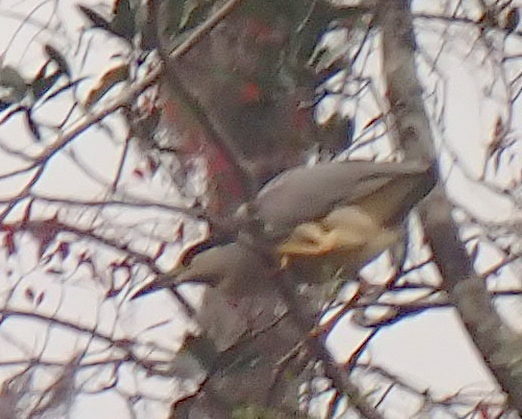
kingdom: Animalia
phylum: Chordata
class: Aves
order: Pelecaniformes
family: Ardeidae
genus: Nycticorax
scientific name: Nycticorax nycticorax
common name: Black-crowned night heron
